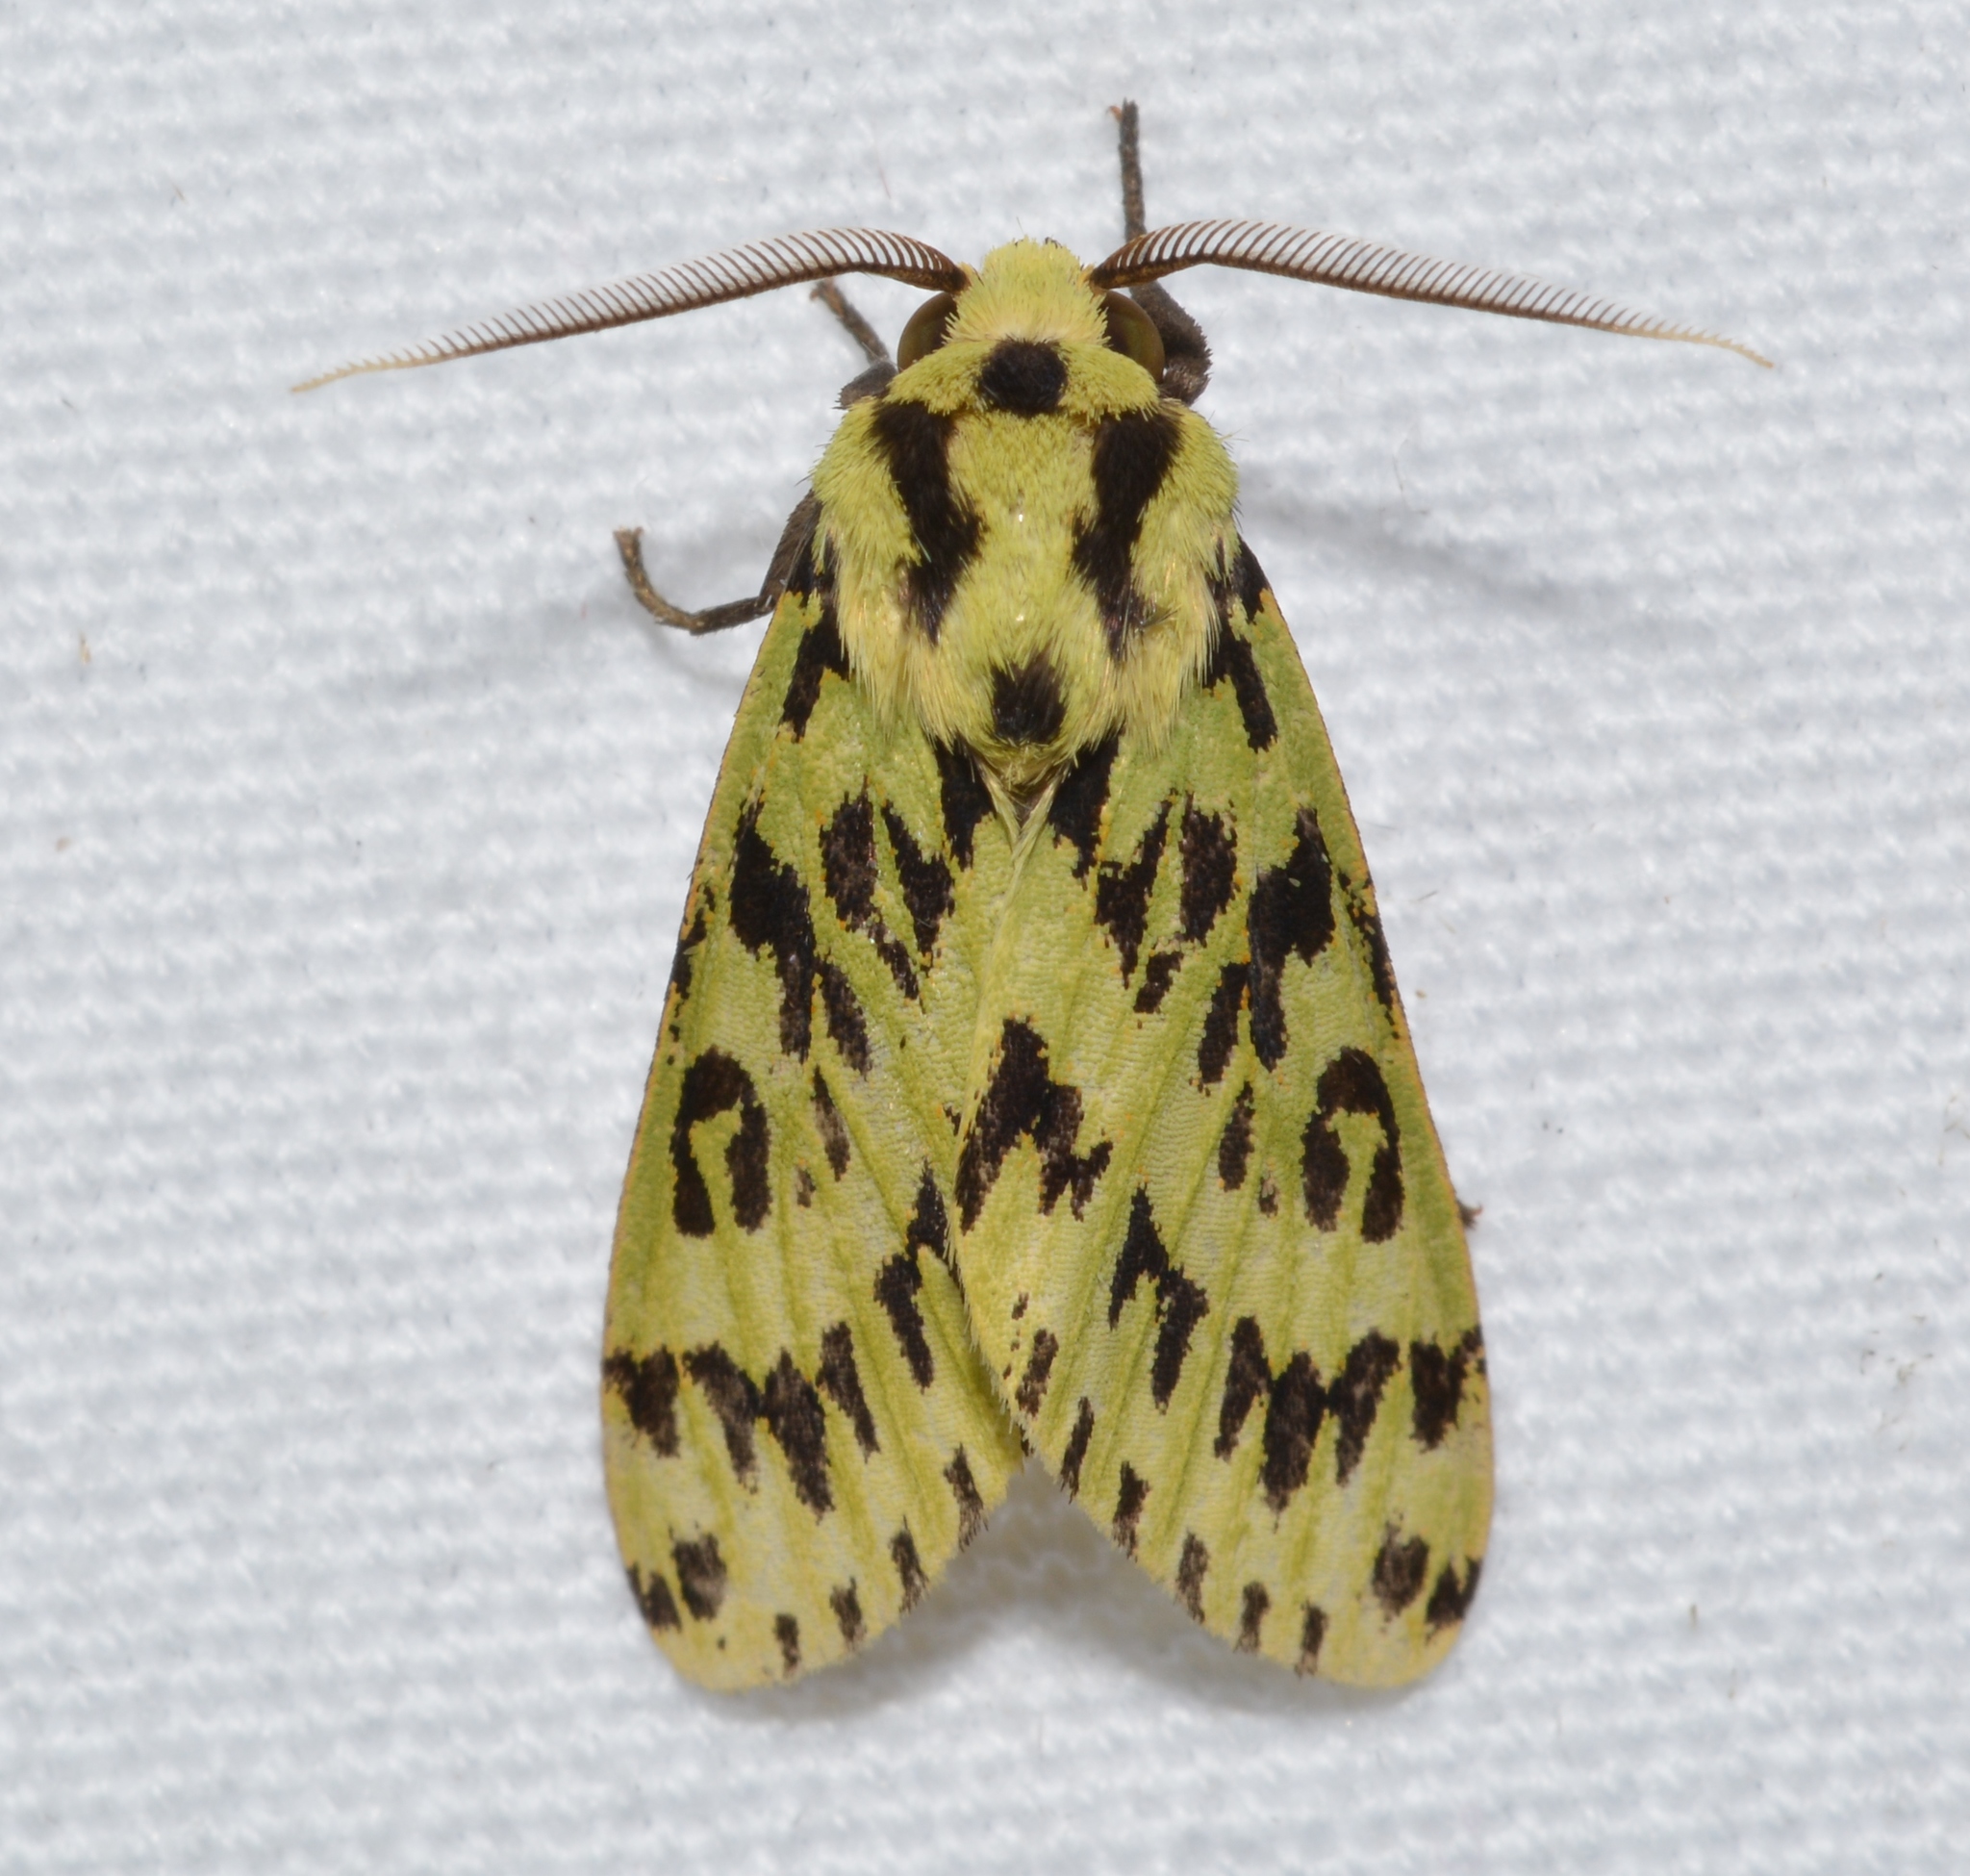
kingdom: Animalia
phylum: Arthropoda
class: Insecta
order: Lepidoptera
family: Erebidae
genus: Symphlebia
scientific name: Symphlebia muscosa
